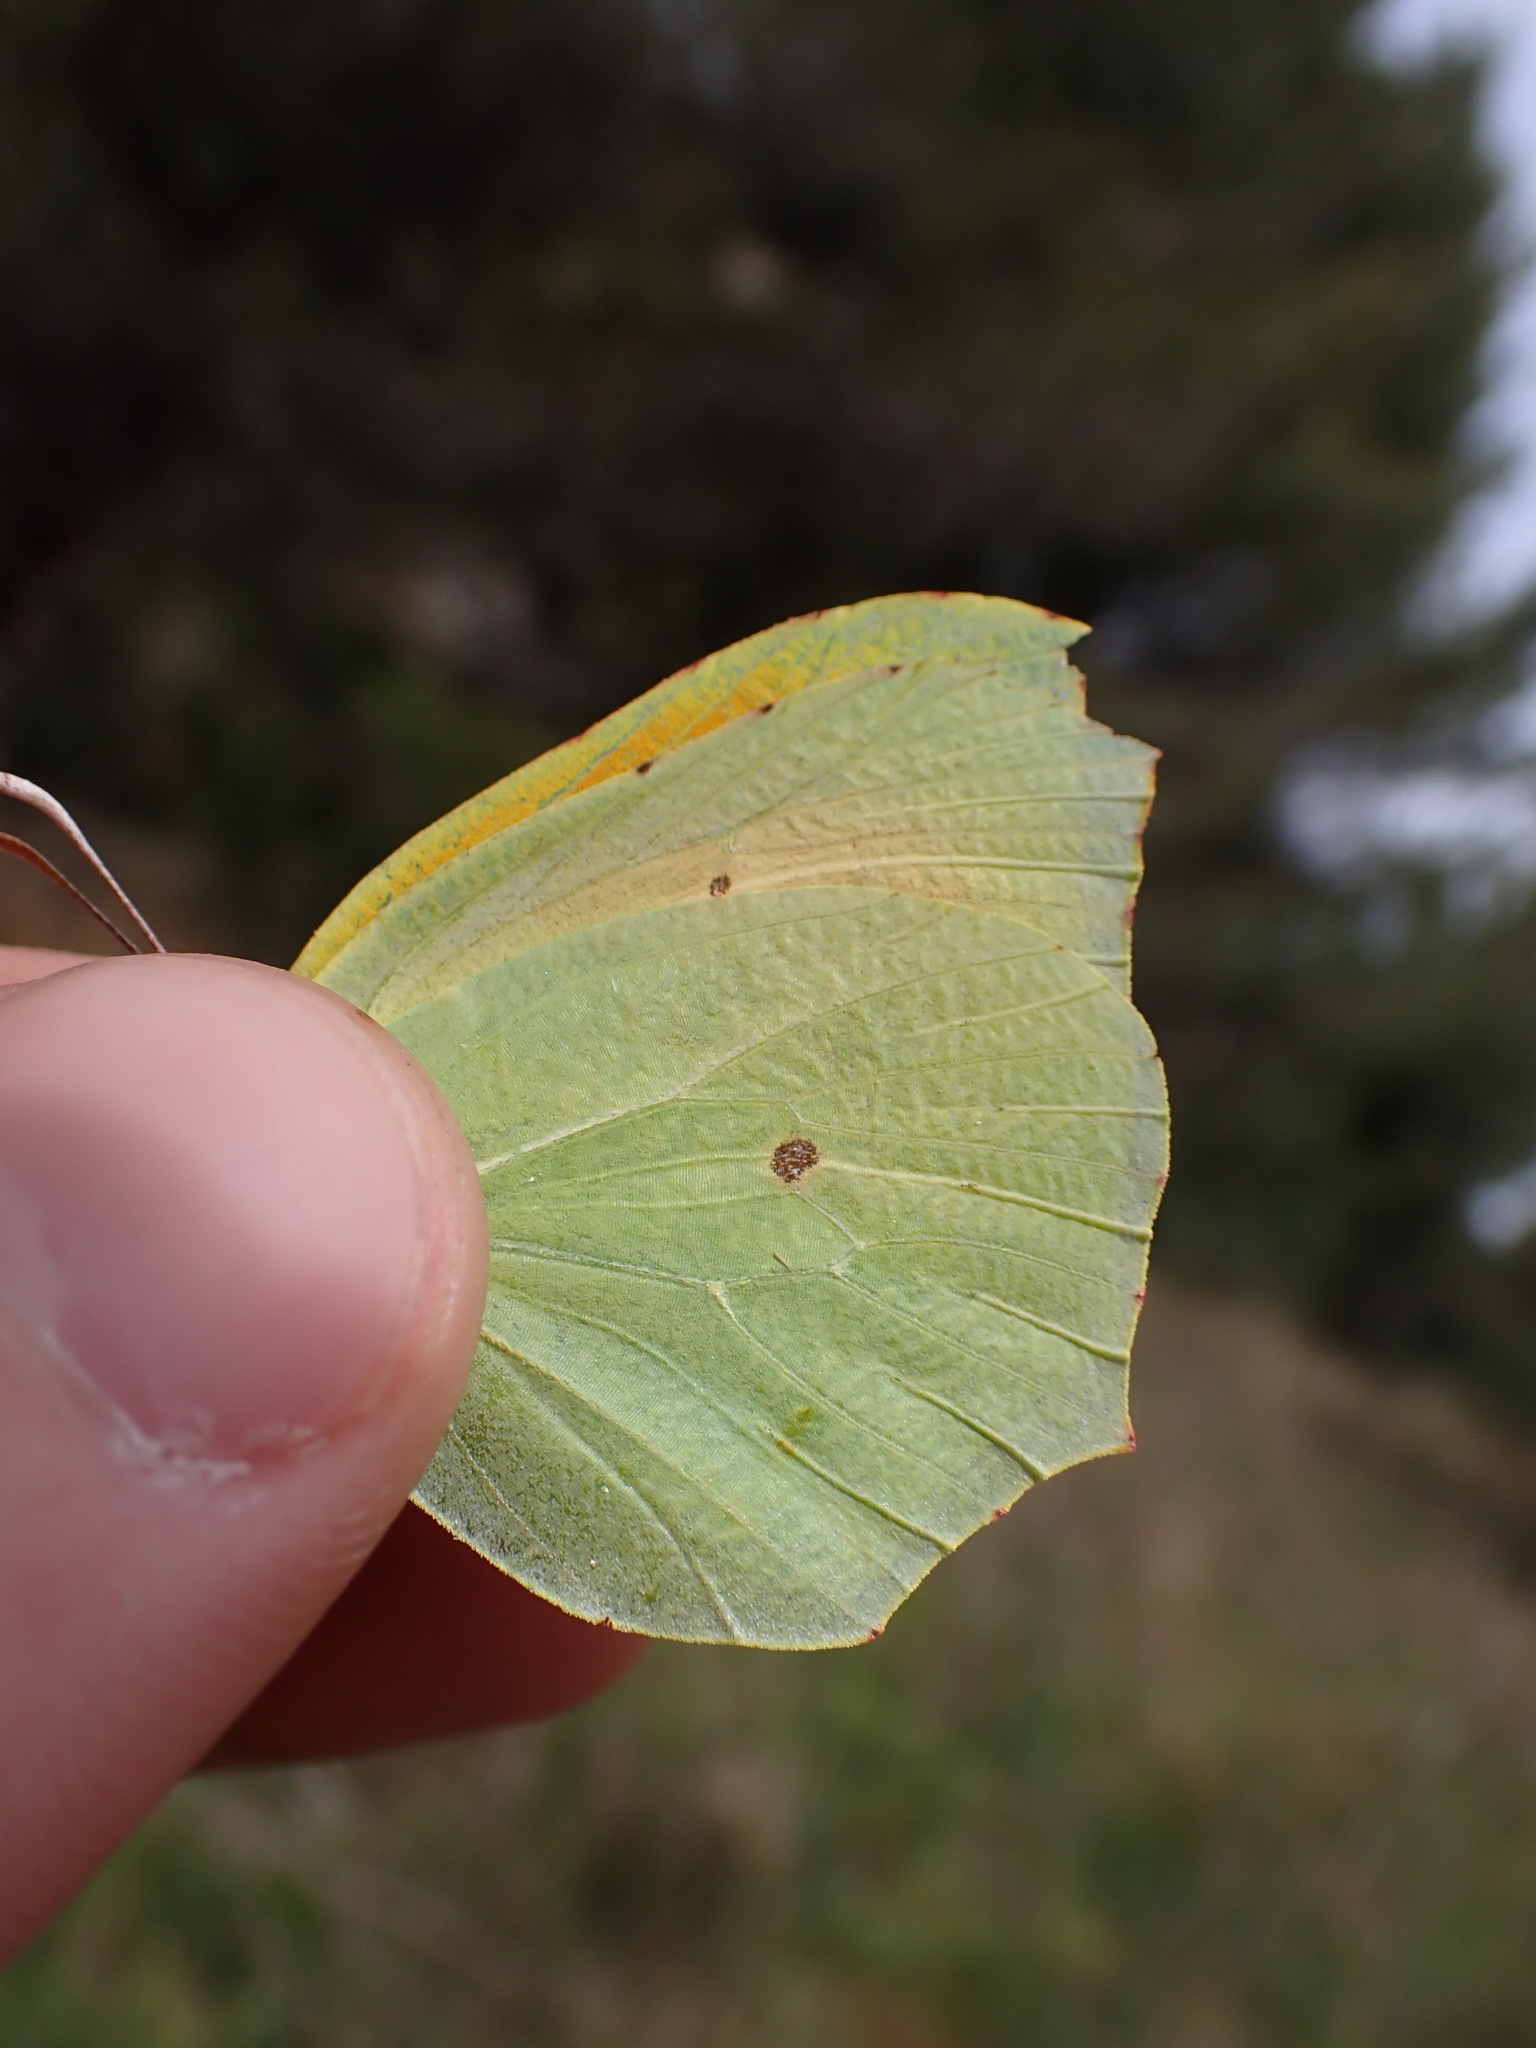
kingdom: Animalia
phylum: Arthropoda
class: Insecta
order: Lepidoptera
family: Pieridae
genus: Gonepteryx
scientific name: Gonepteryx cleopatra
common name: Cleopatra
